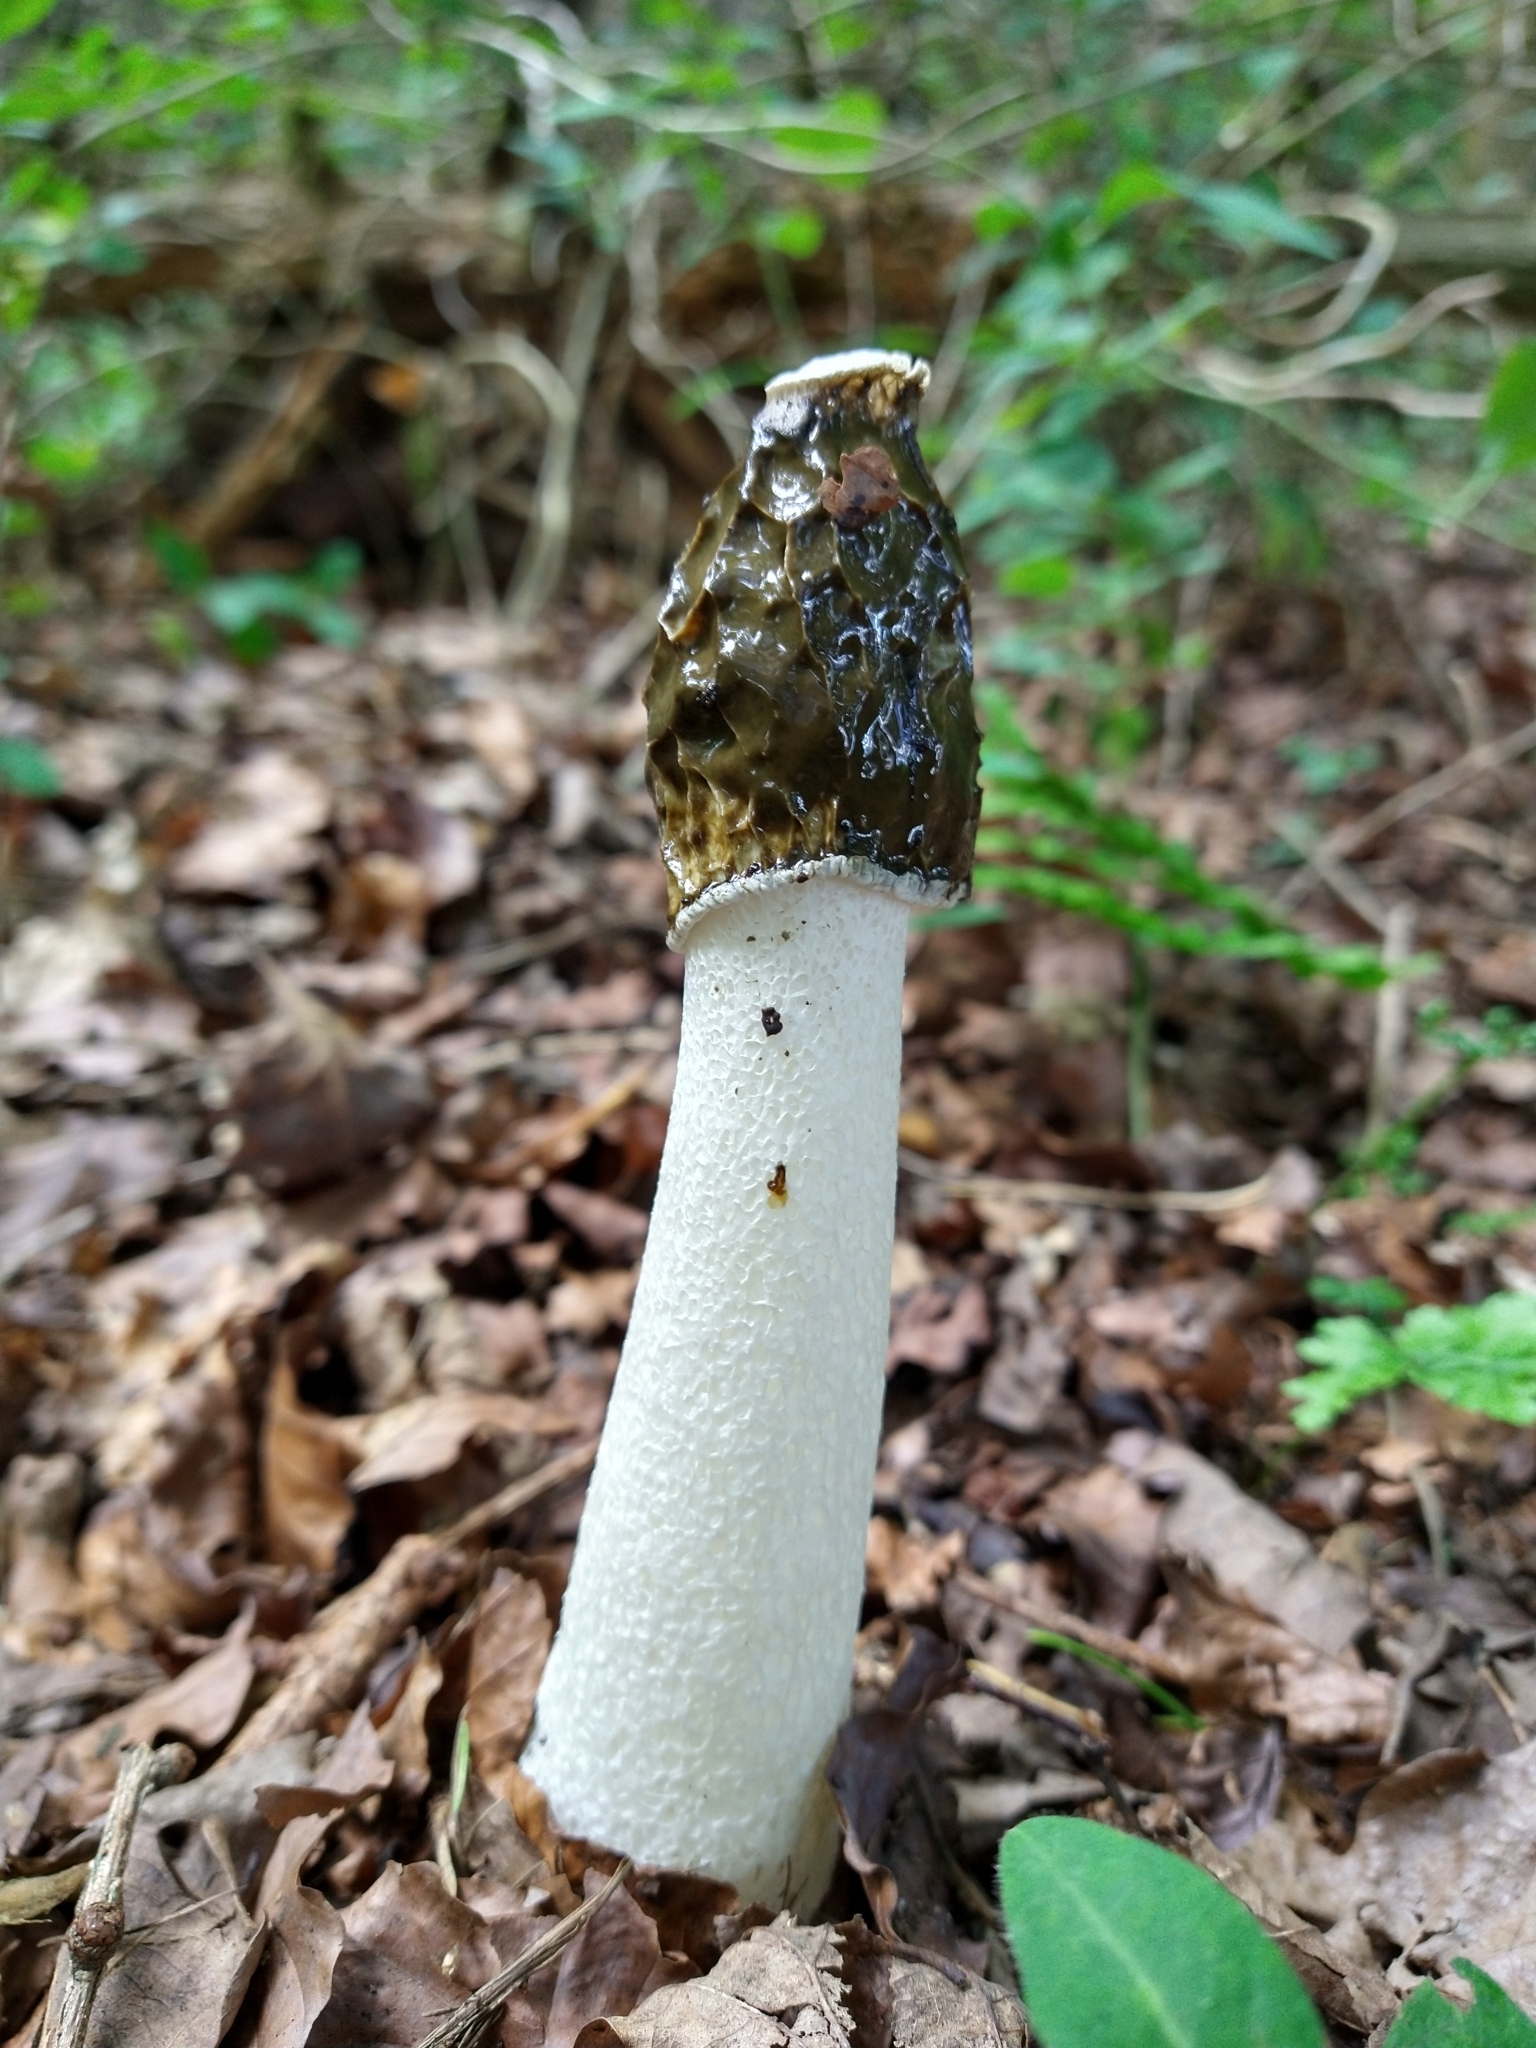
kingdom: Fungi
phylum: Basidiomycota
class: Agaricomycetes
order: Phallales
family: Phallaceae
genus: Phallus
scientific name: Phallus impudicus
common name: Common stinkhorn
